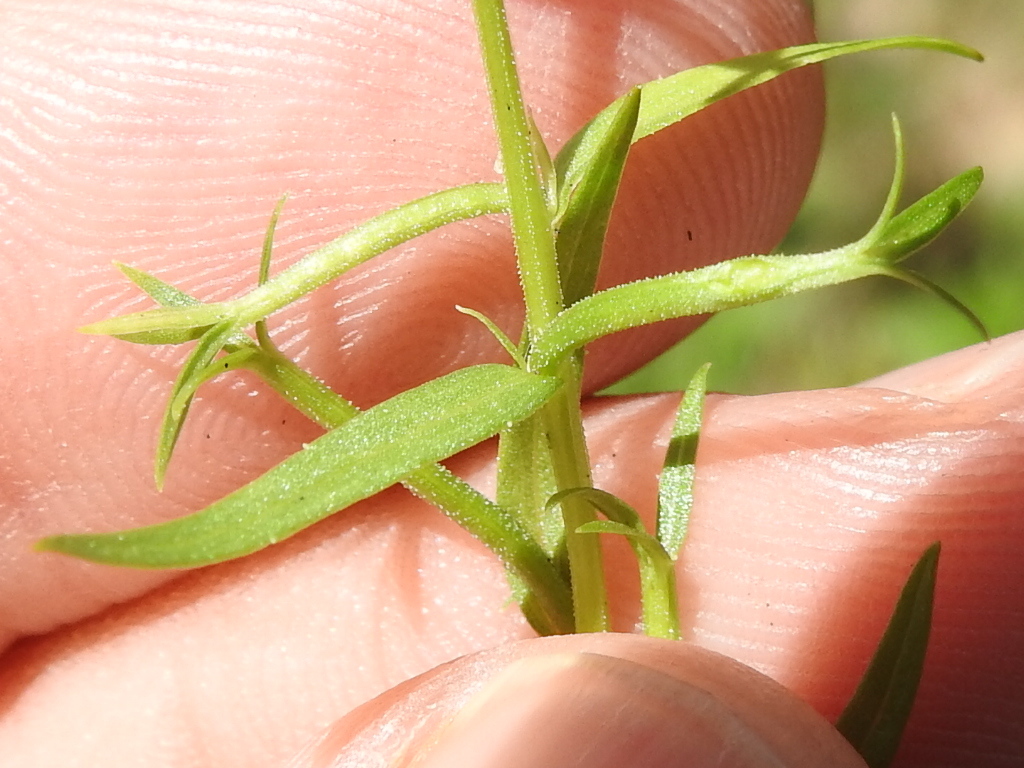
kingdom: Plantae
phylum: Tracheophyta
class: Magnoliopsida
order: Asterales
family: Campanulaceae
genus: Triodanis
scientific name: Triodanis leptocarpa
